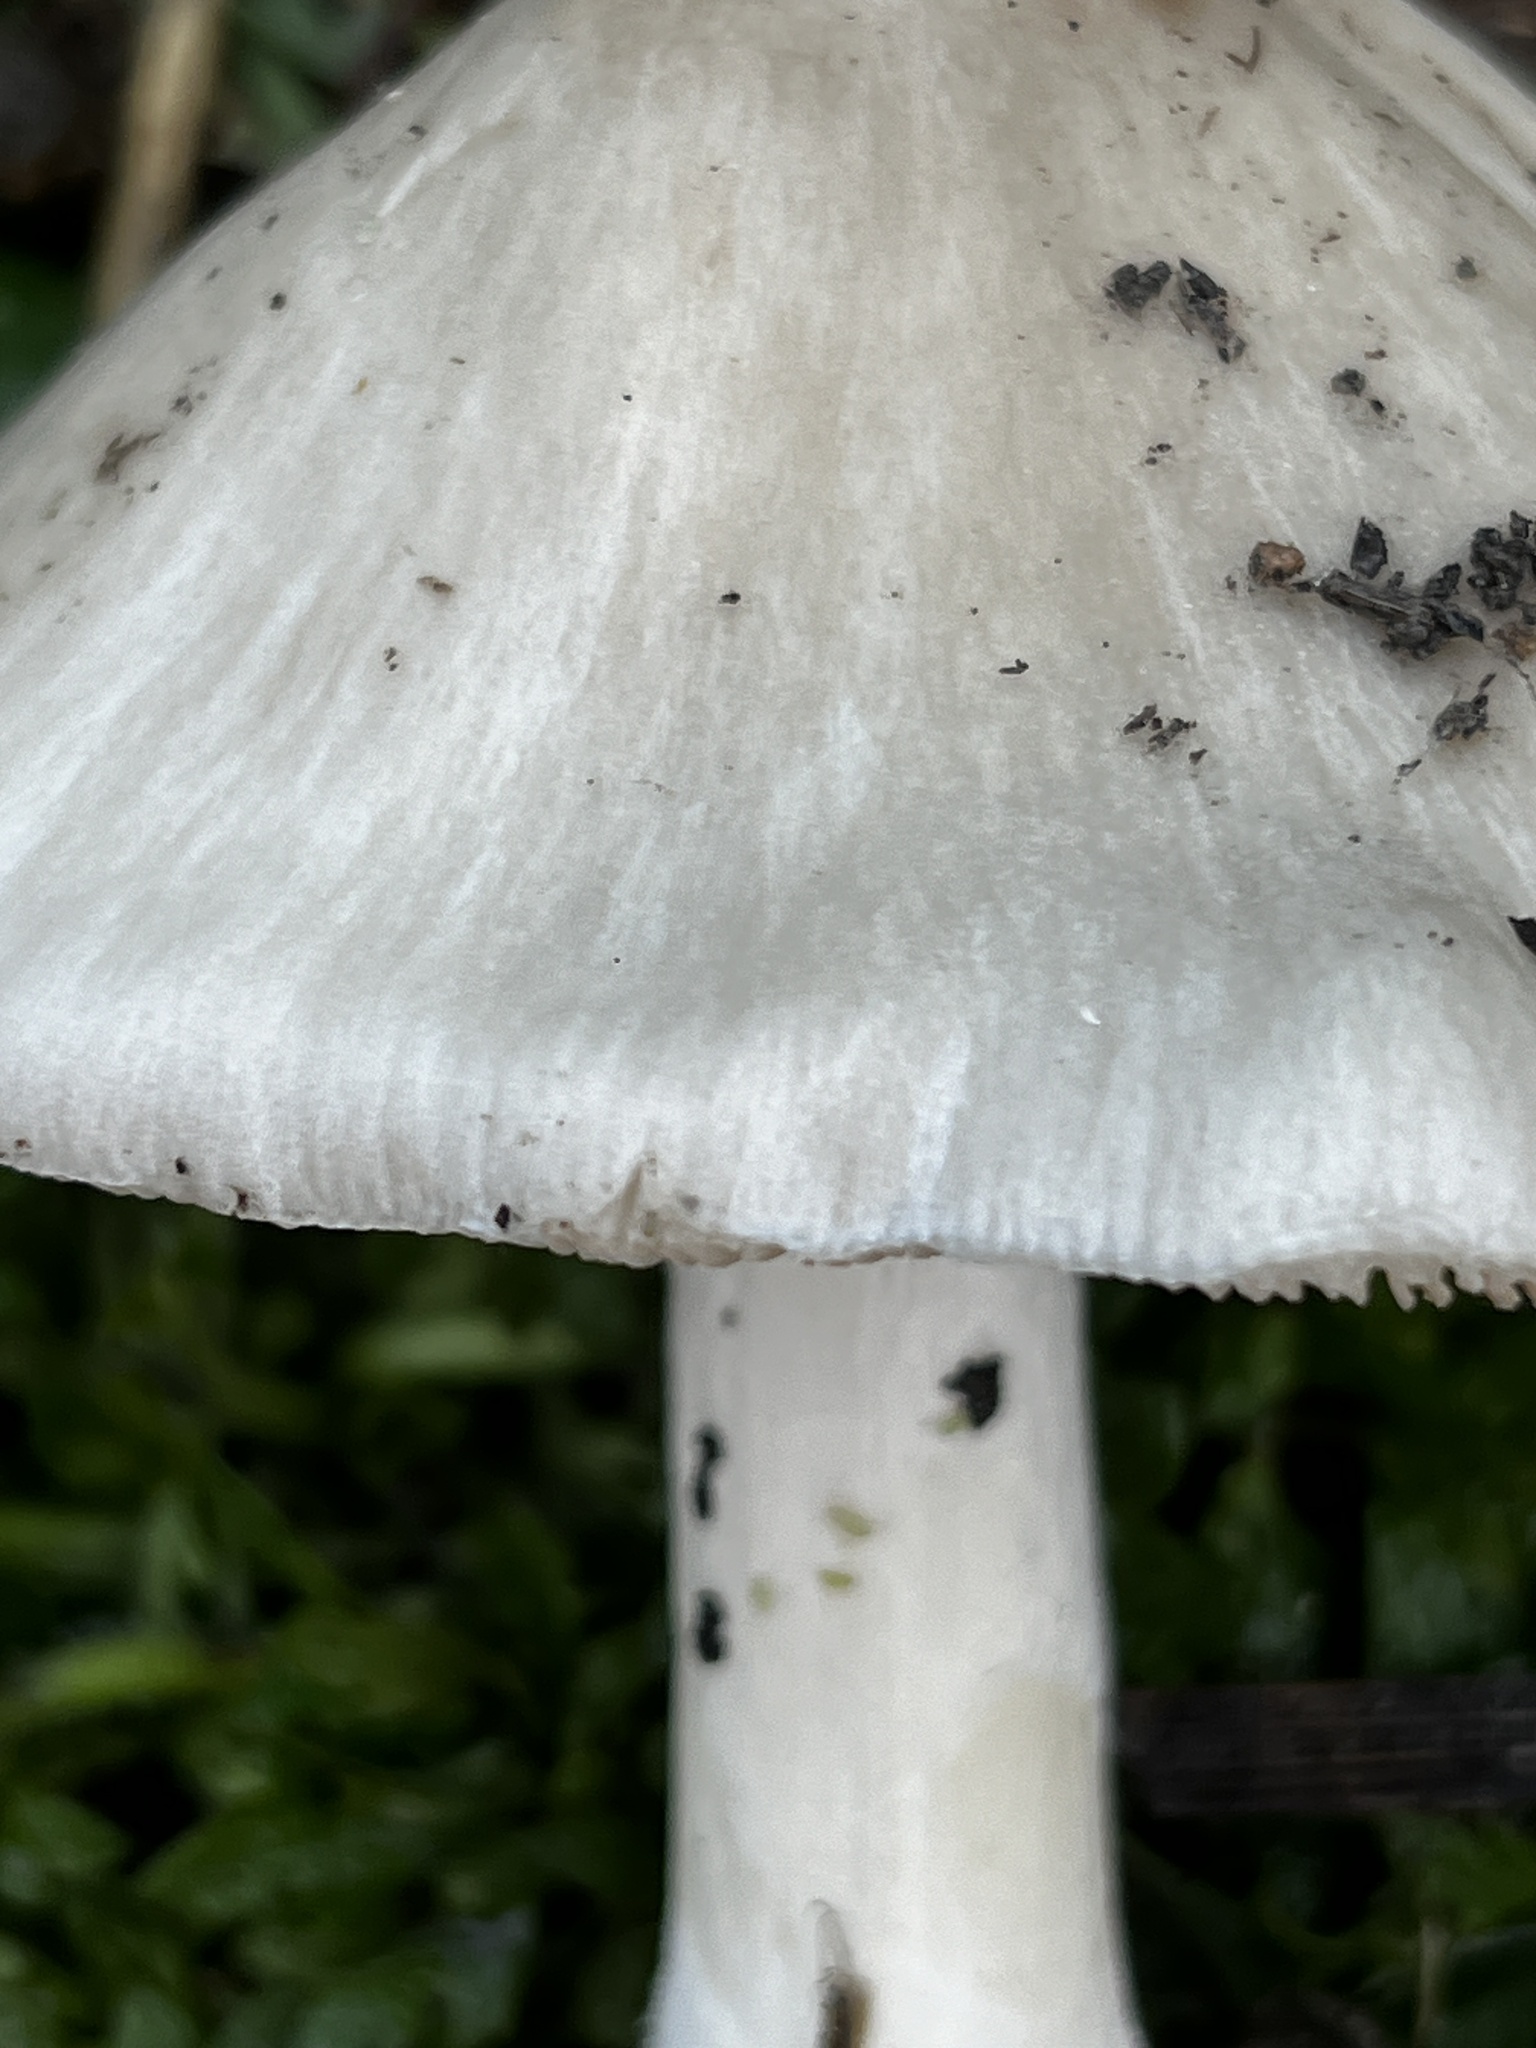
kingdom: Fungi
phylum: Basidiomycota
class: Agaricomycetes
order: Agaricales
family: Pluteaceae
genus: Volvopluteus
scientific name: Volvopluteus gloiocephalus
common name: Stubble rosegill
